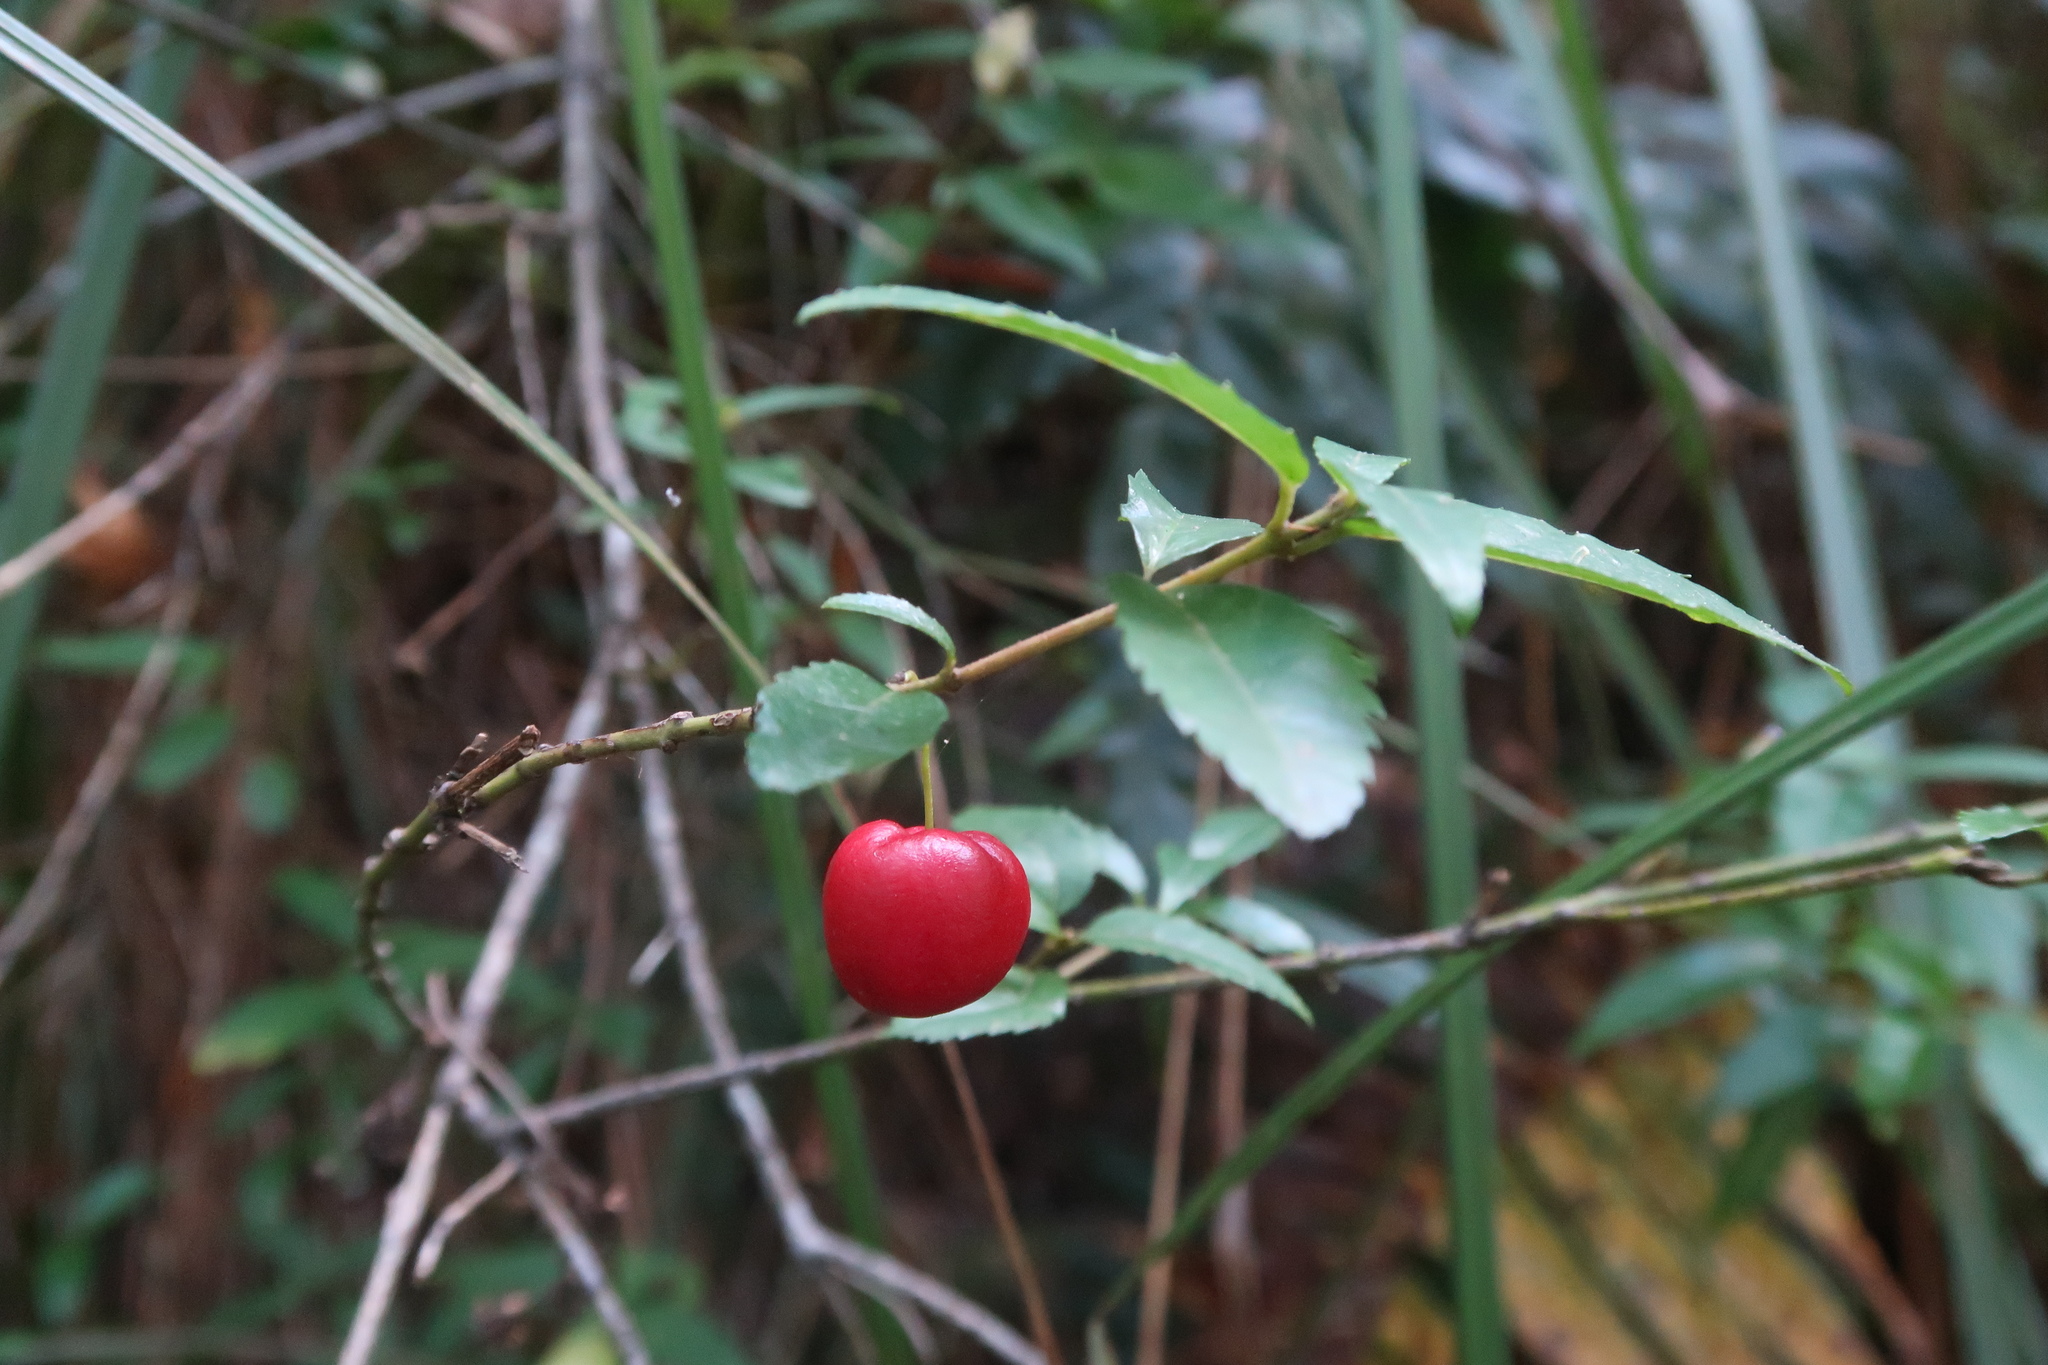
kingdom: Plantae
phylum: Tracheophyta
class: Magnoliopsida
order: Oxalidales
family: Elaeocarpaceae
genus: Aristotelia
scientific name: Aristotelia peduncularis
